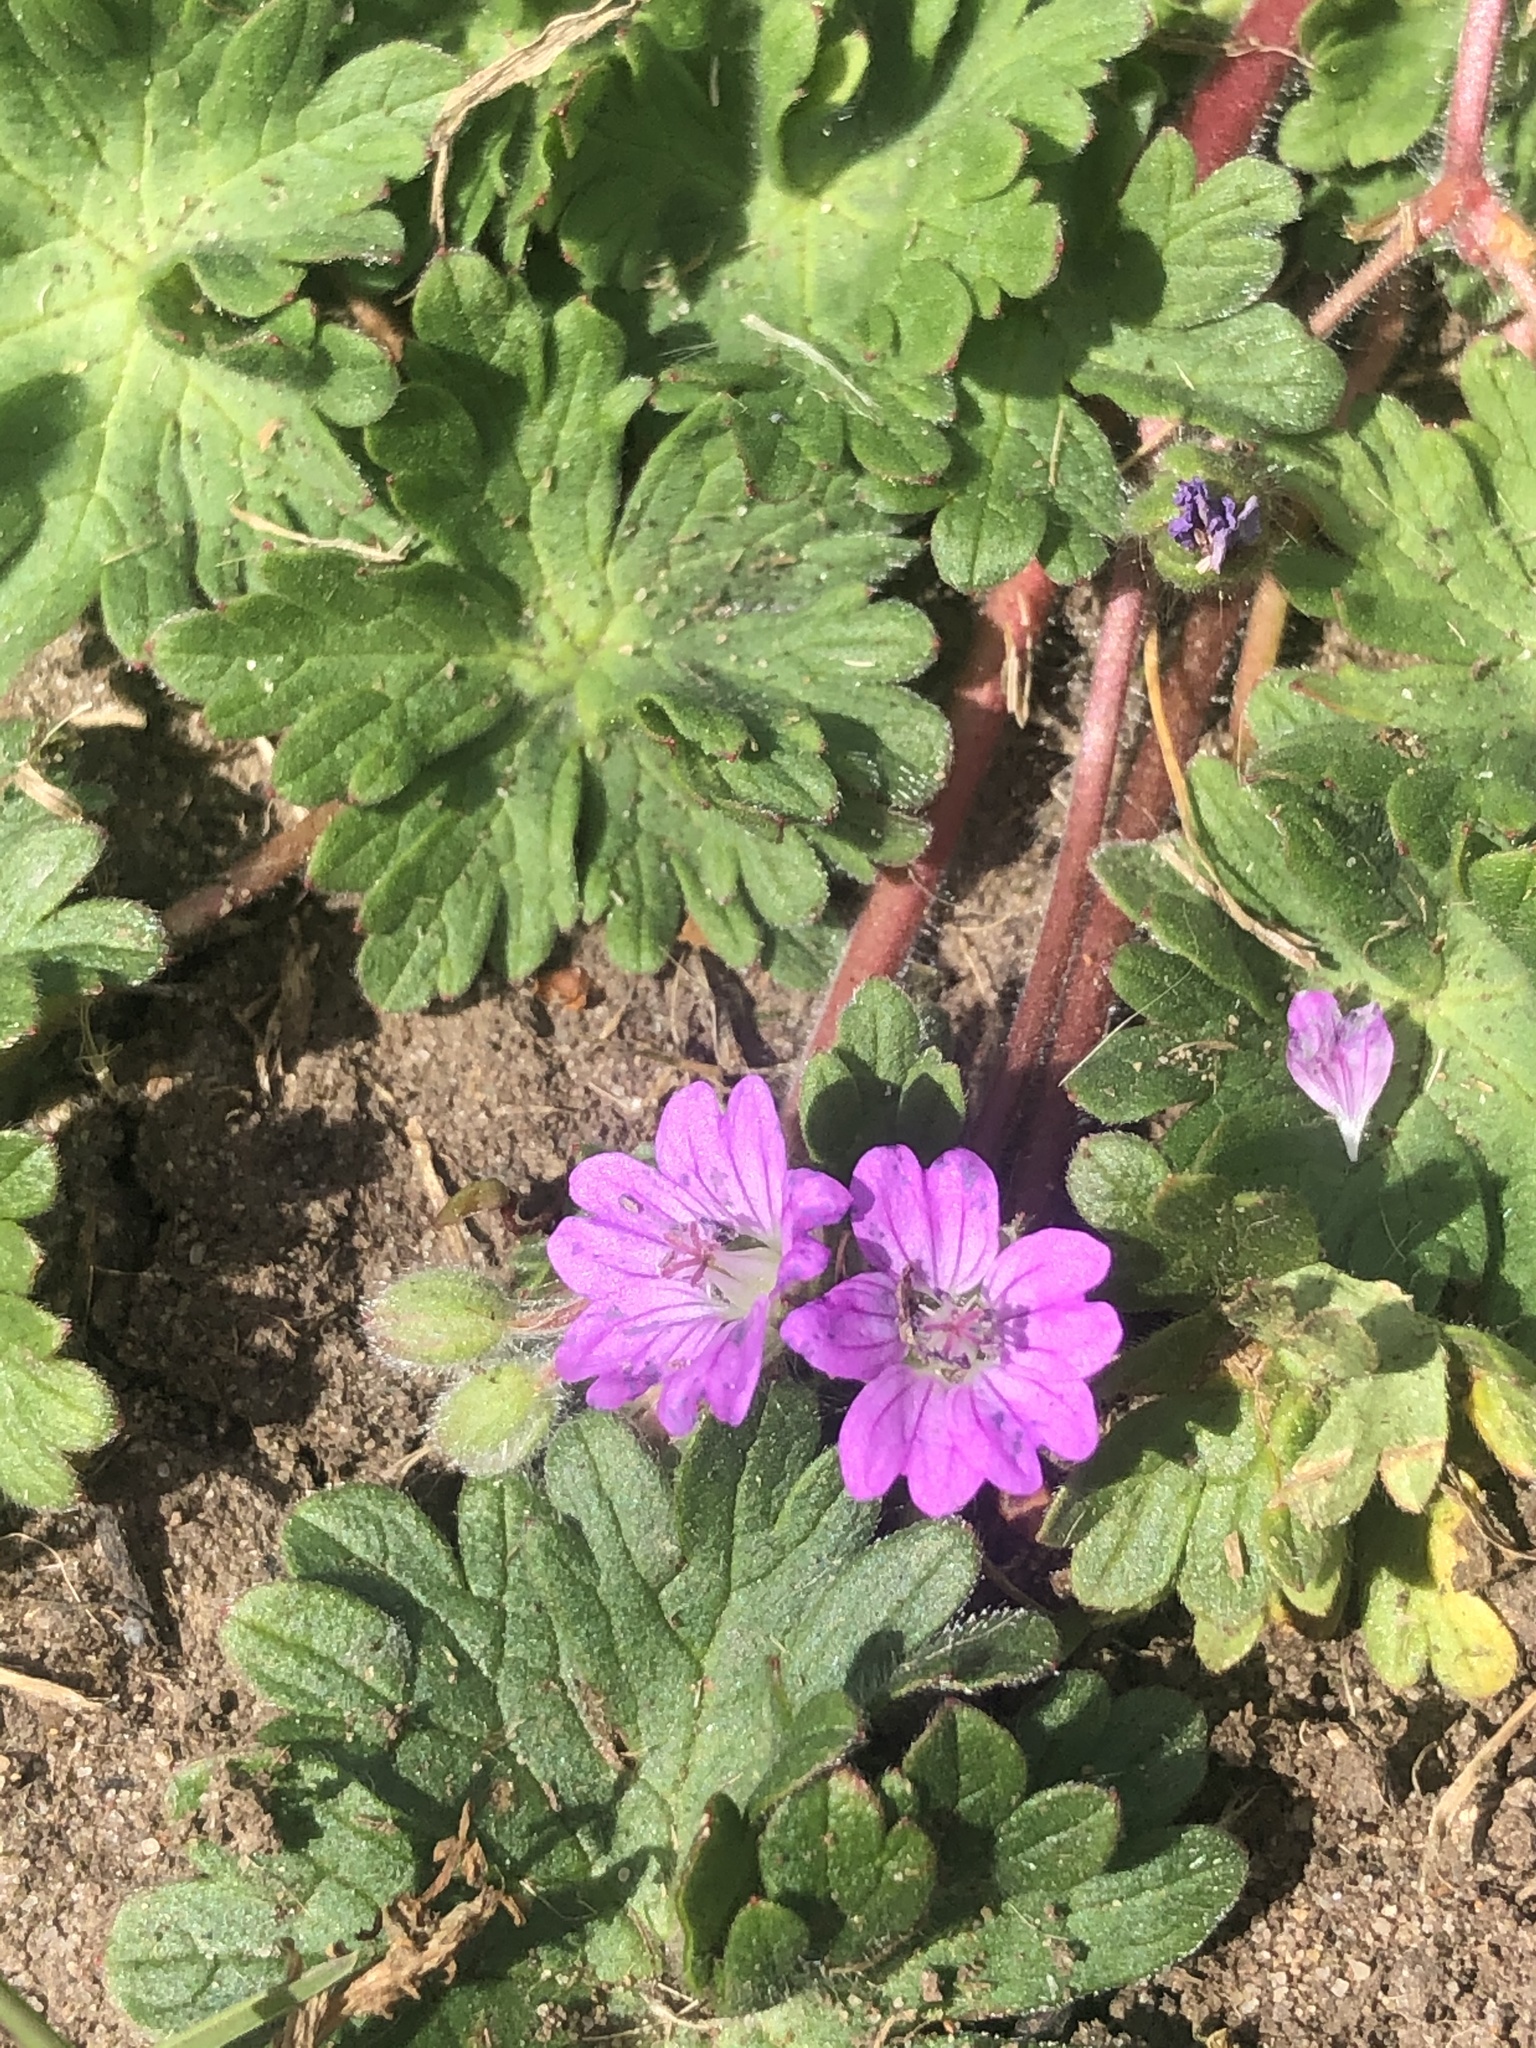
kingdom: Plantae
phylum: Tracheophyta
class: Magnoliopsida
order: Geraniales
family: Geraniaceae
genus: Geranium
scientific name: Geranium molle
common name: Dove's-foot crane's-bill
